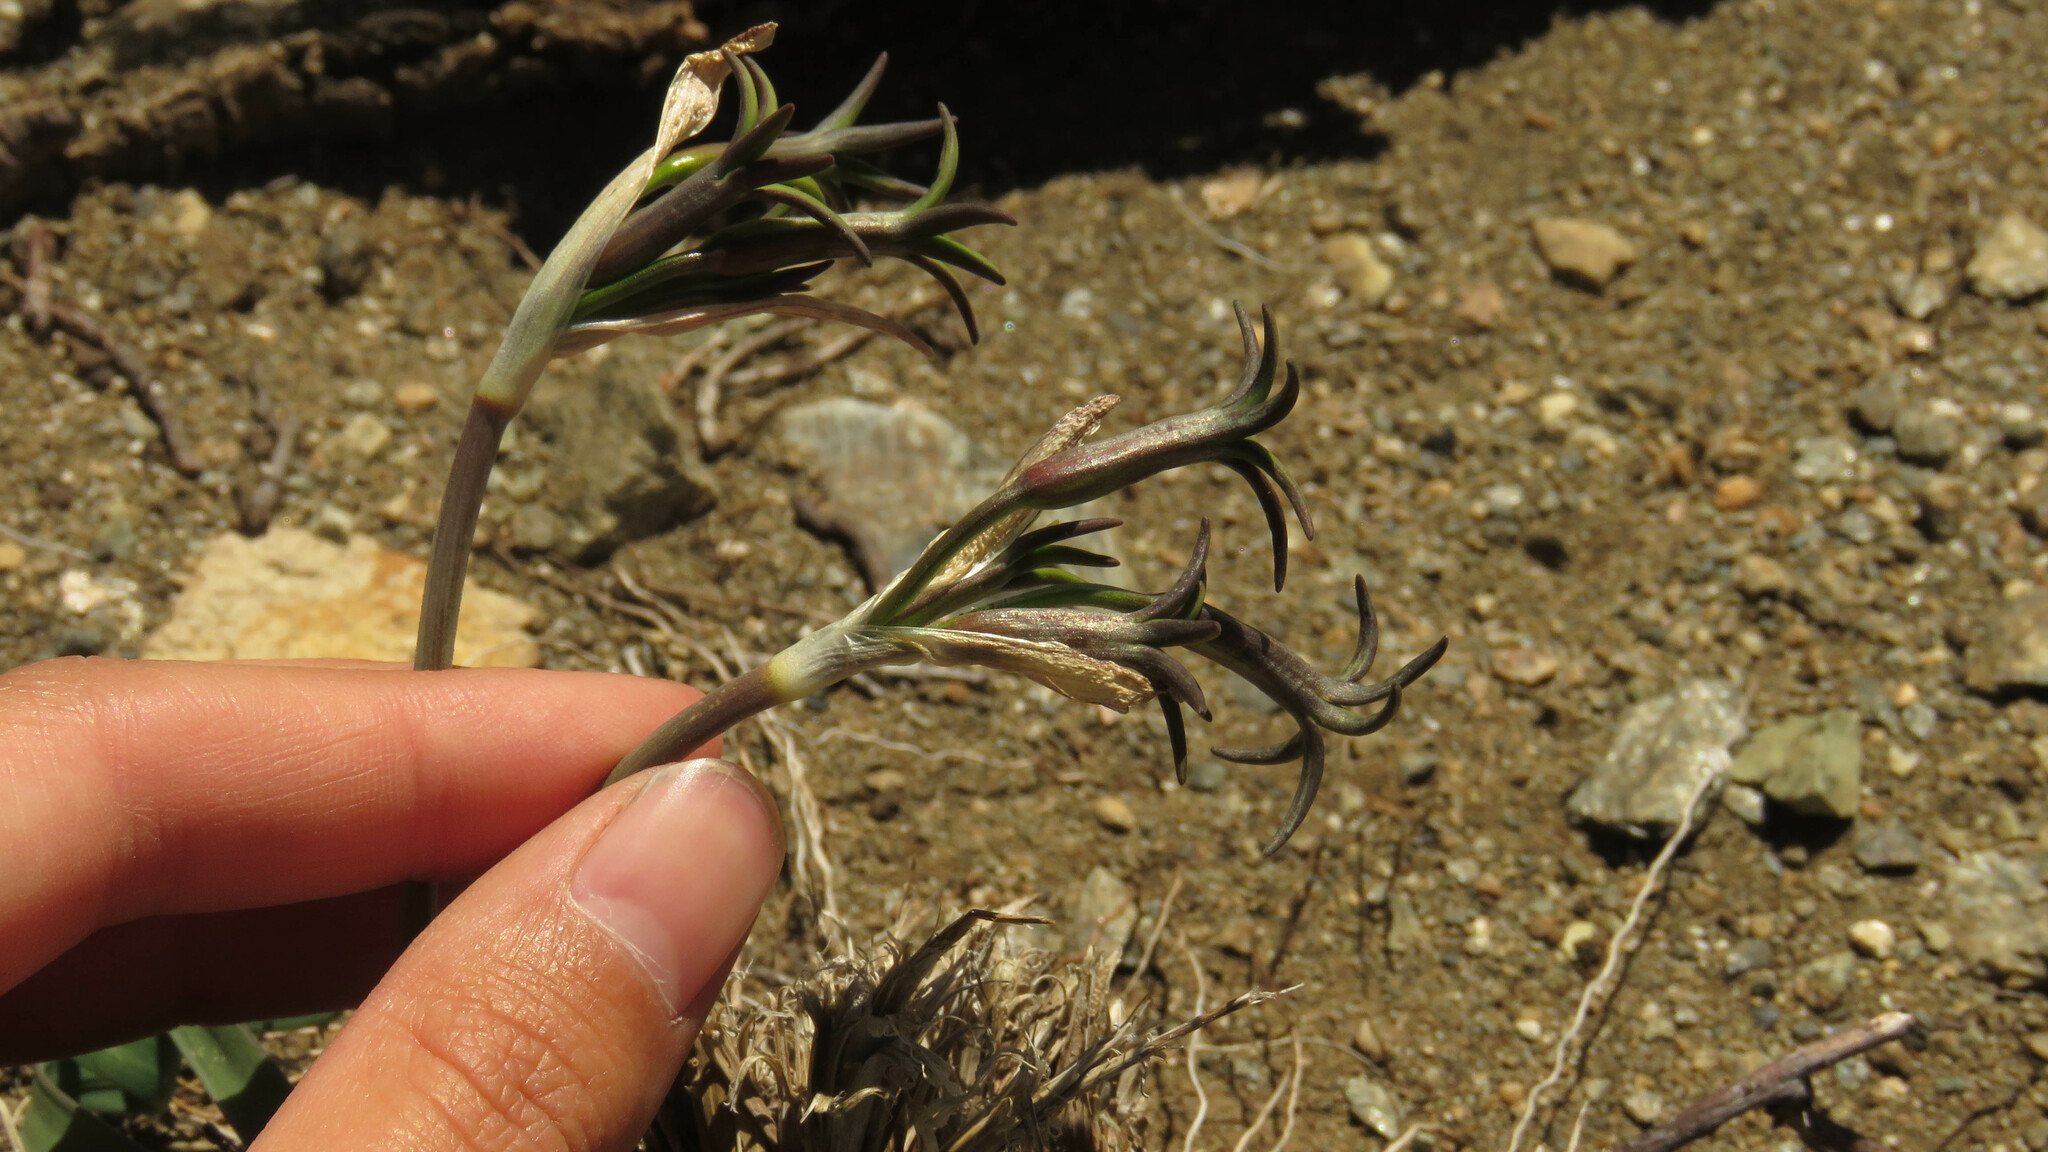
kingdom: Plantae
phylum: Tracheophyta
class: Liliopsida
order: Asparagales
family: Amaryllidaceae
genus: Tristagma
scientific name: Tristagma nivale
